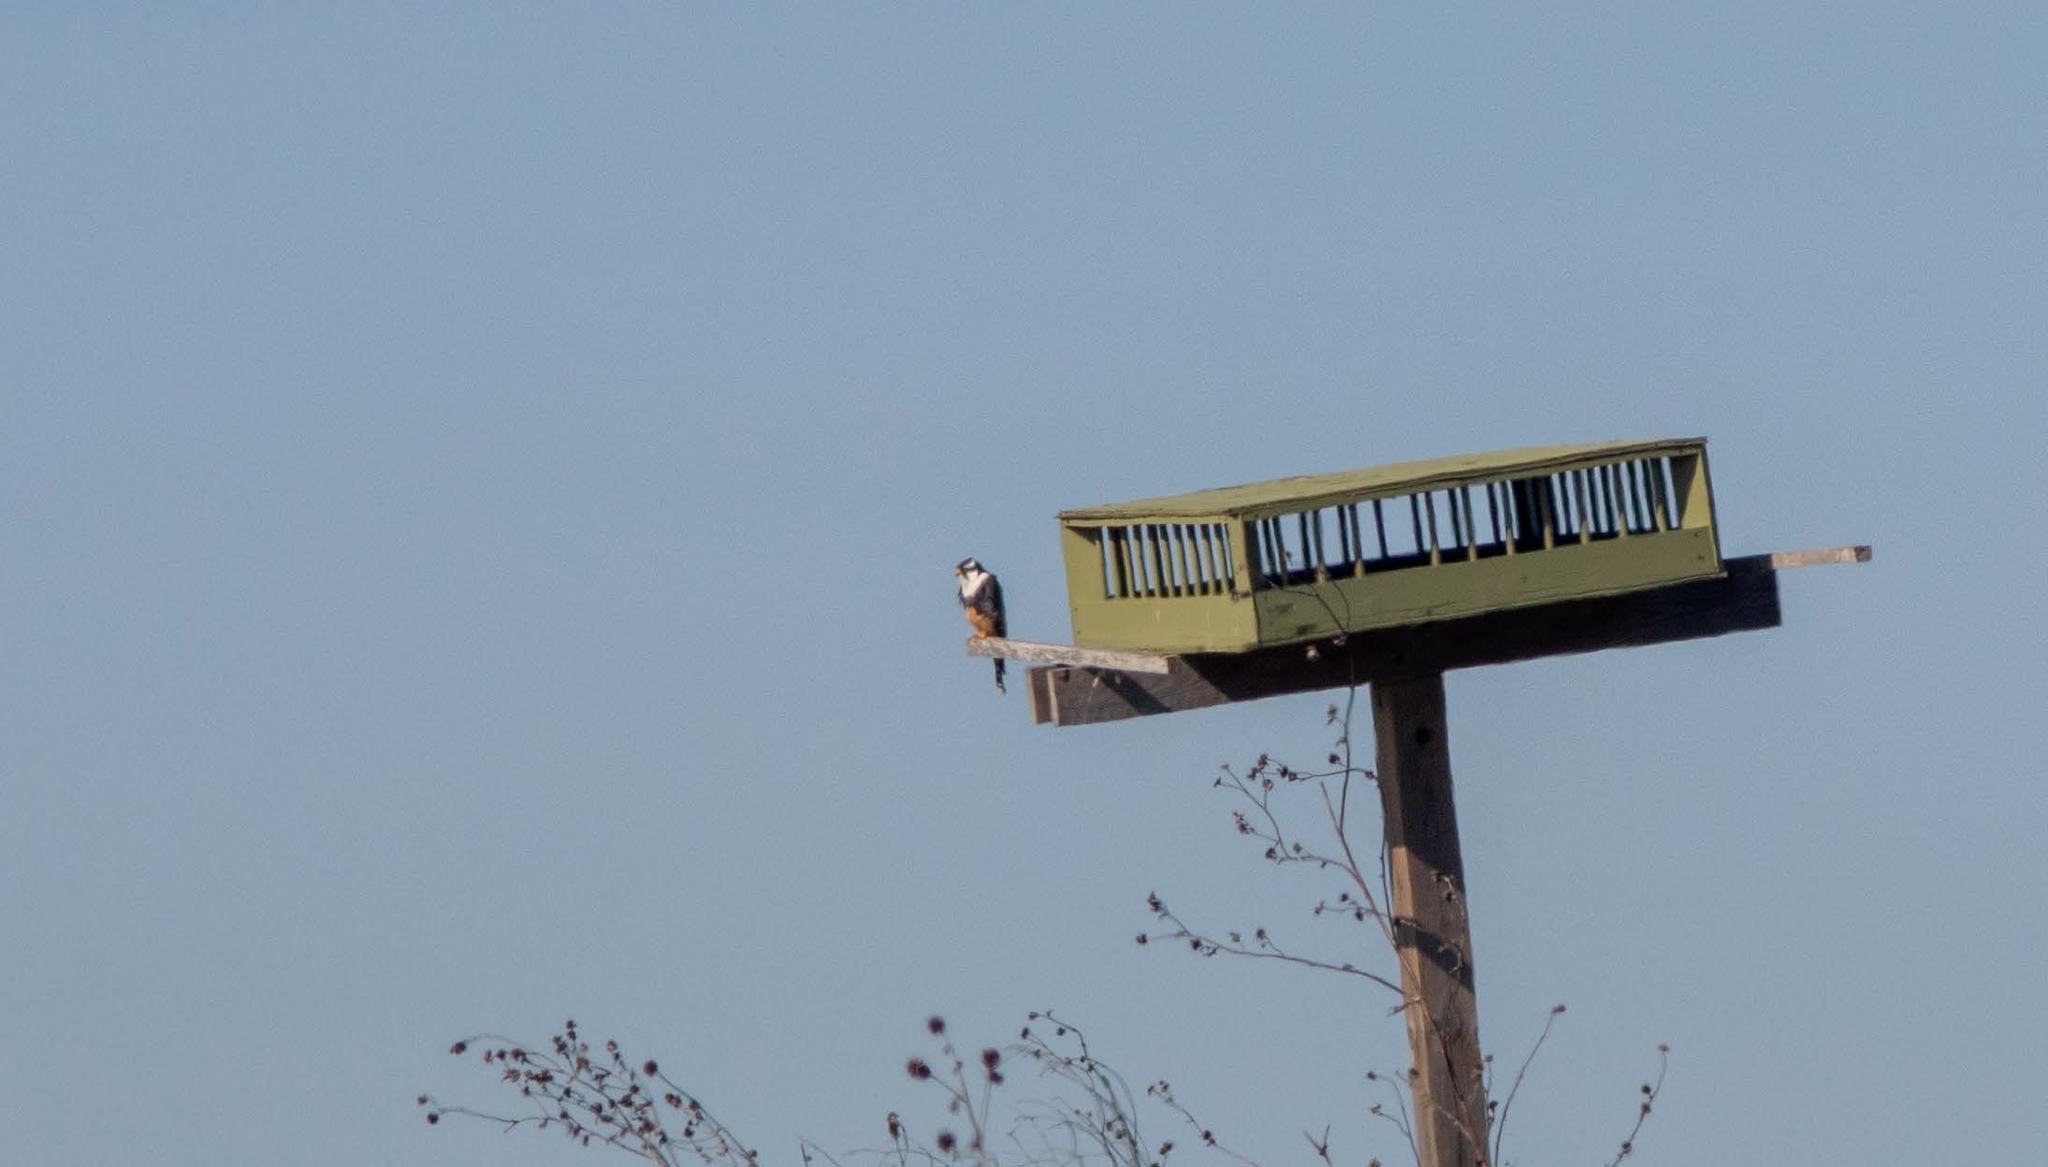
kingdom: Animalia
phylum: Chordata
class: Aves
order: Falconiformes
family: Falconidae
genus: Falco
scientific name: Falco femoralis
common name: Aplomado falcon
